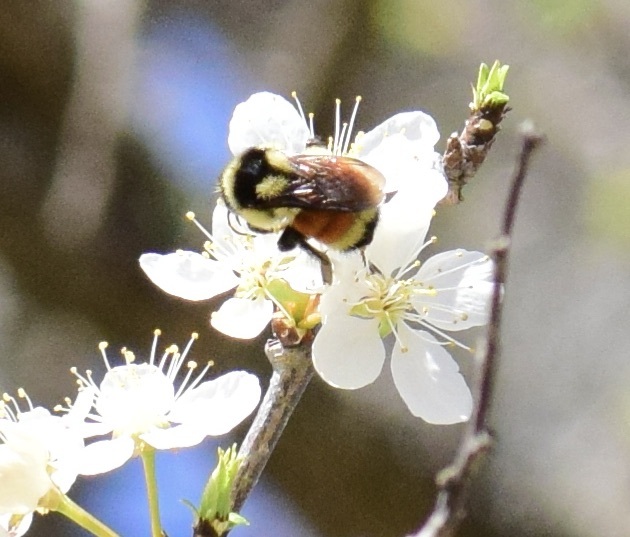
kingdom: Animalia
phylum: Arthropoda
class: Insecta
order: Hymenoptera
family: Apidae
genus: Bombus
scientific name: Bombus ternarius
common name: Tri-colored bumble bee
